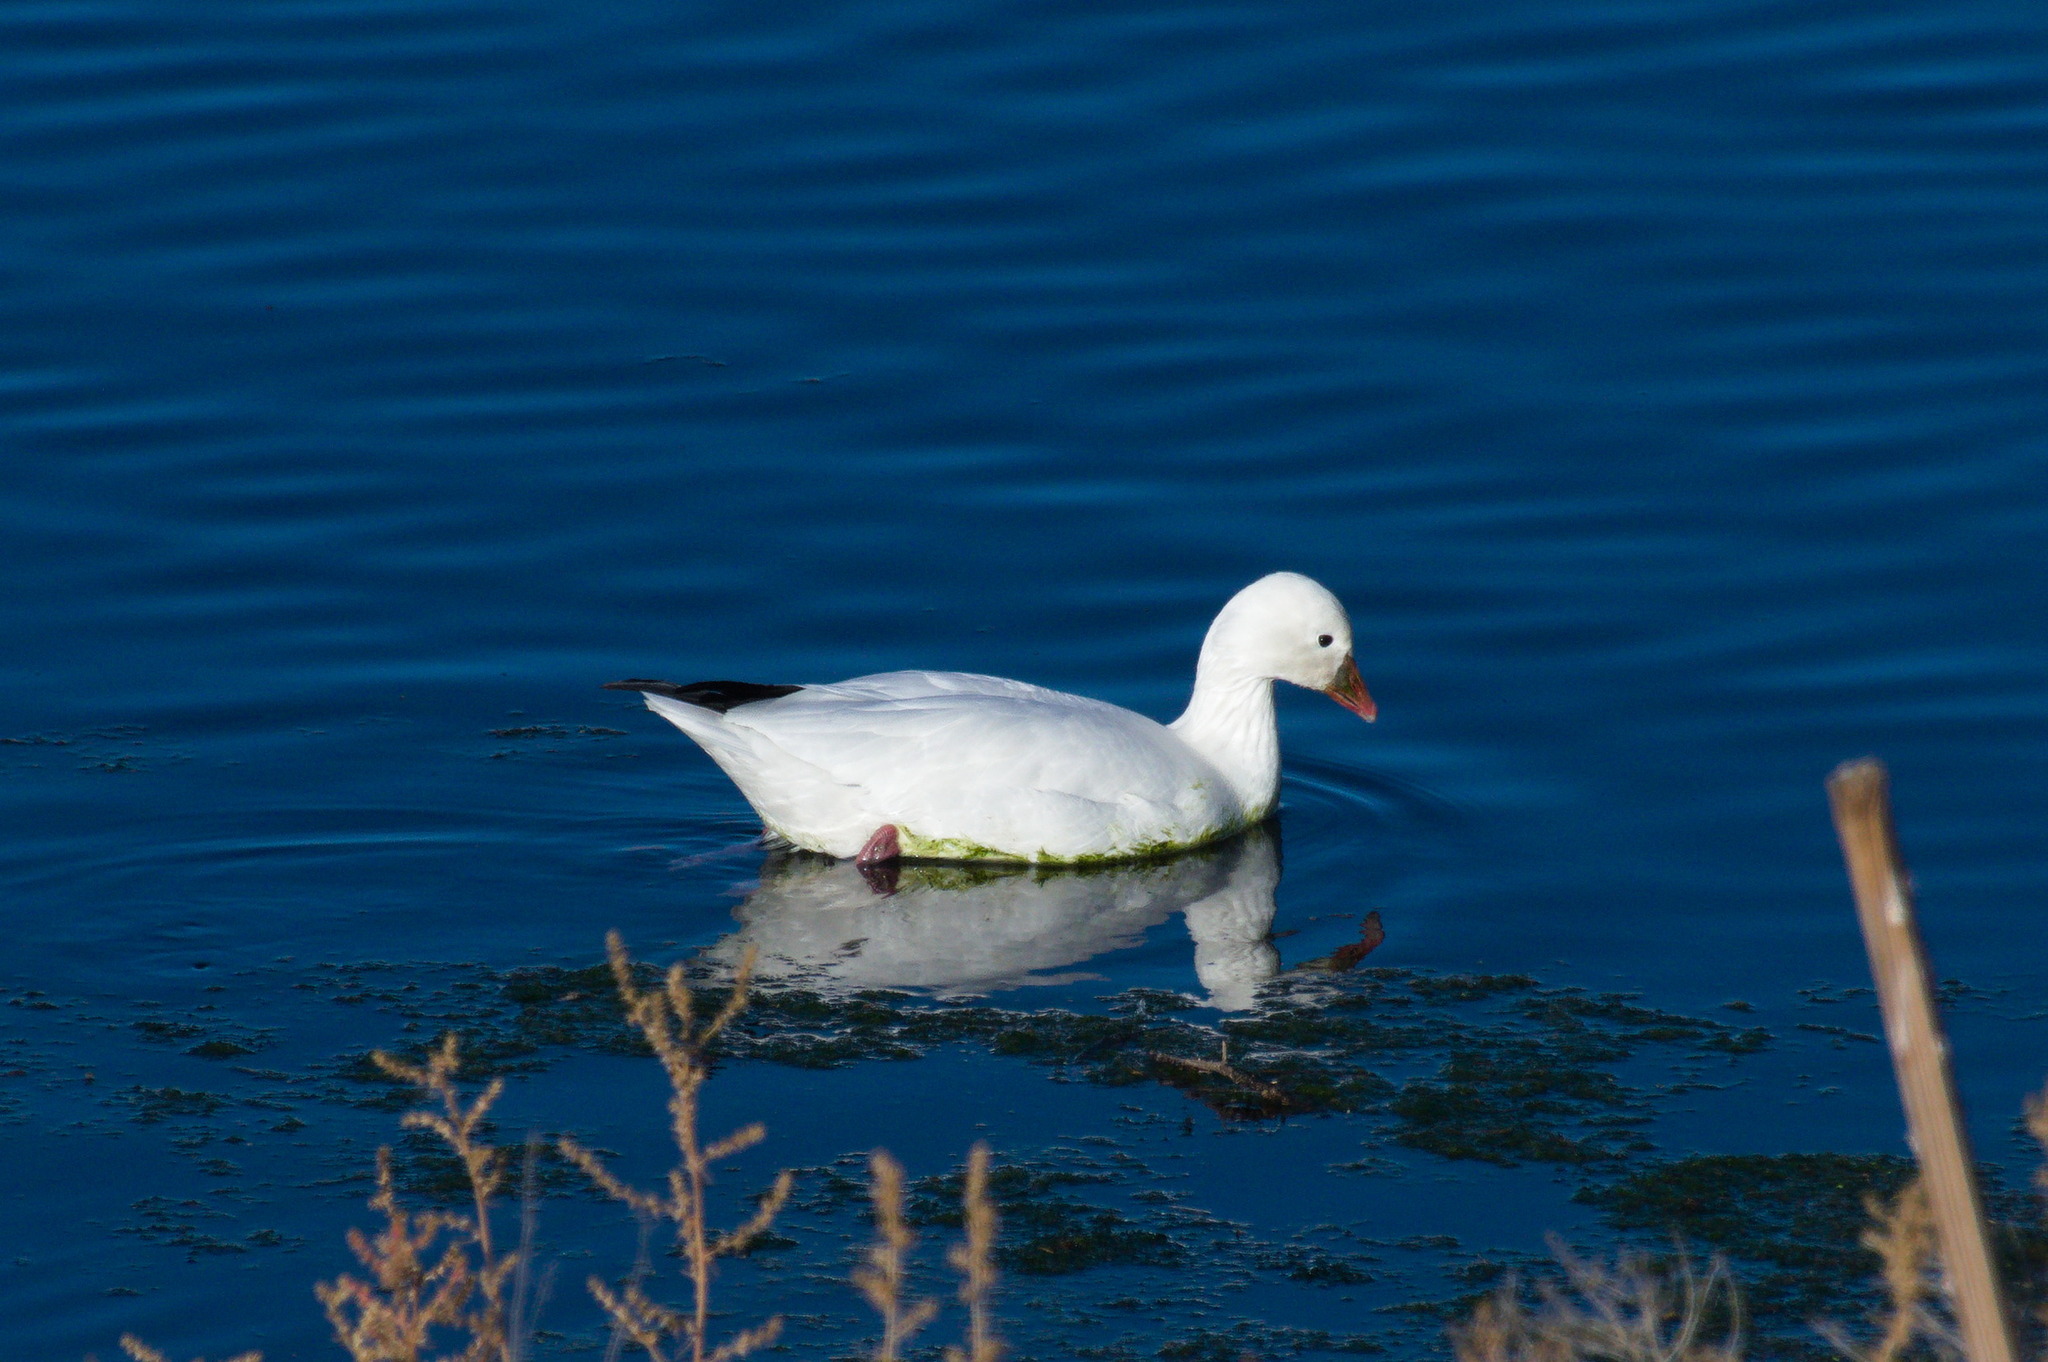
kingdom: Animalia
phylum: Chordata
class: Aves
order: Anseriformes
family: Anatidae
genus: Anser
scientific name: Anser rossii
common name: Ross's goose
